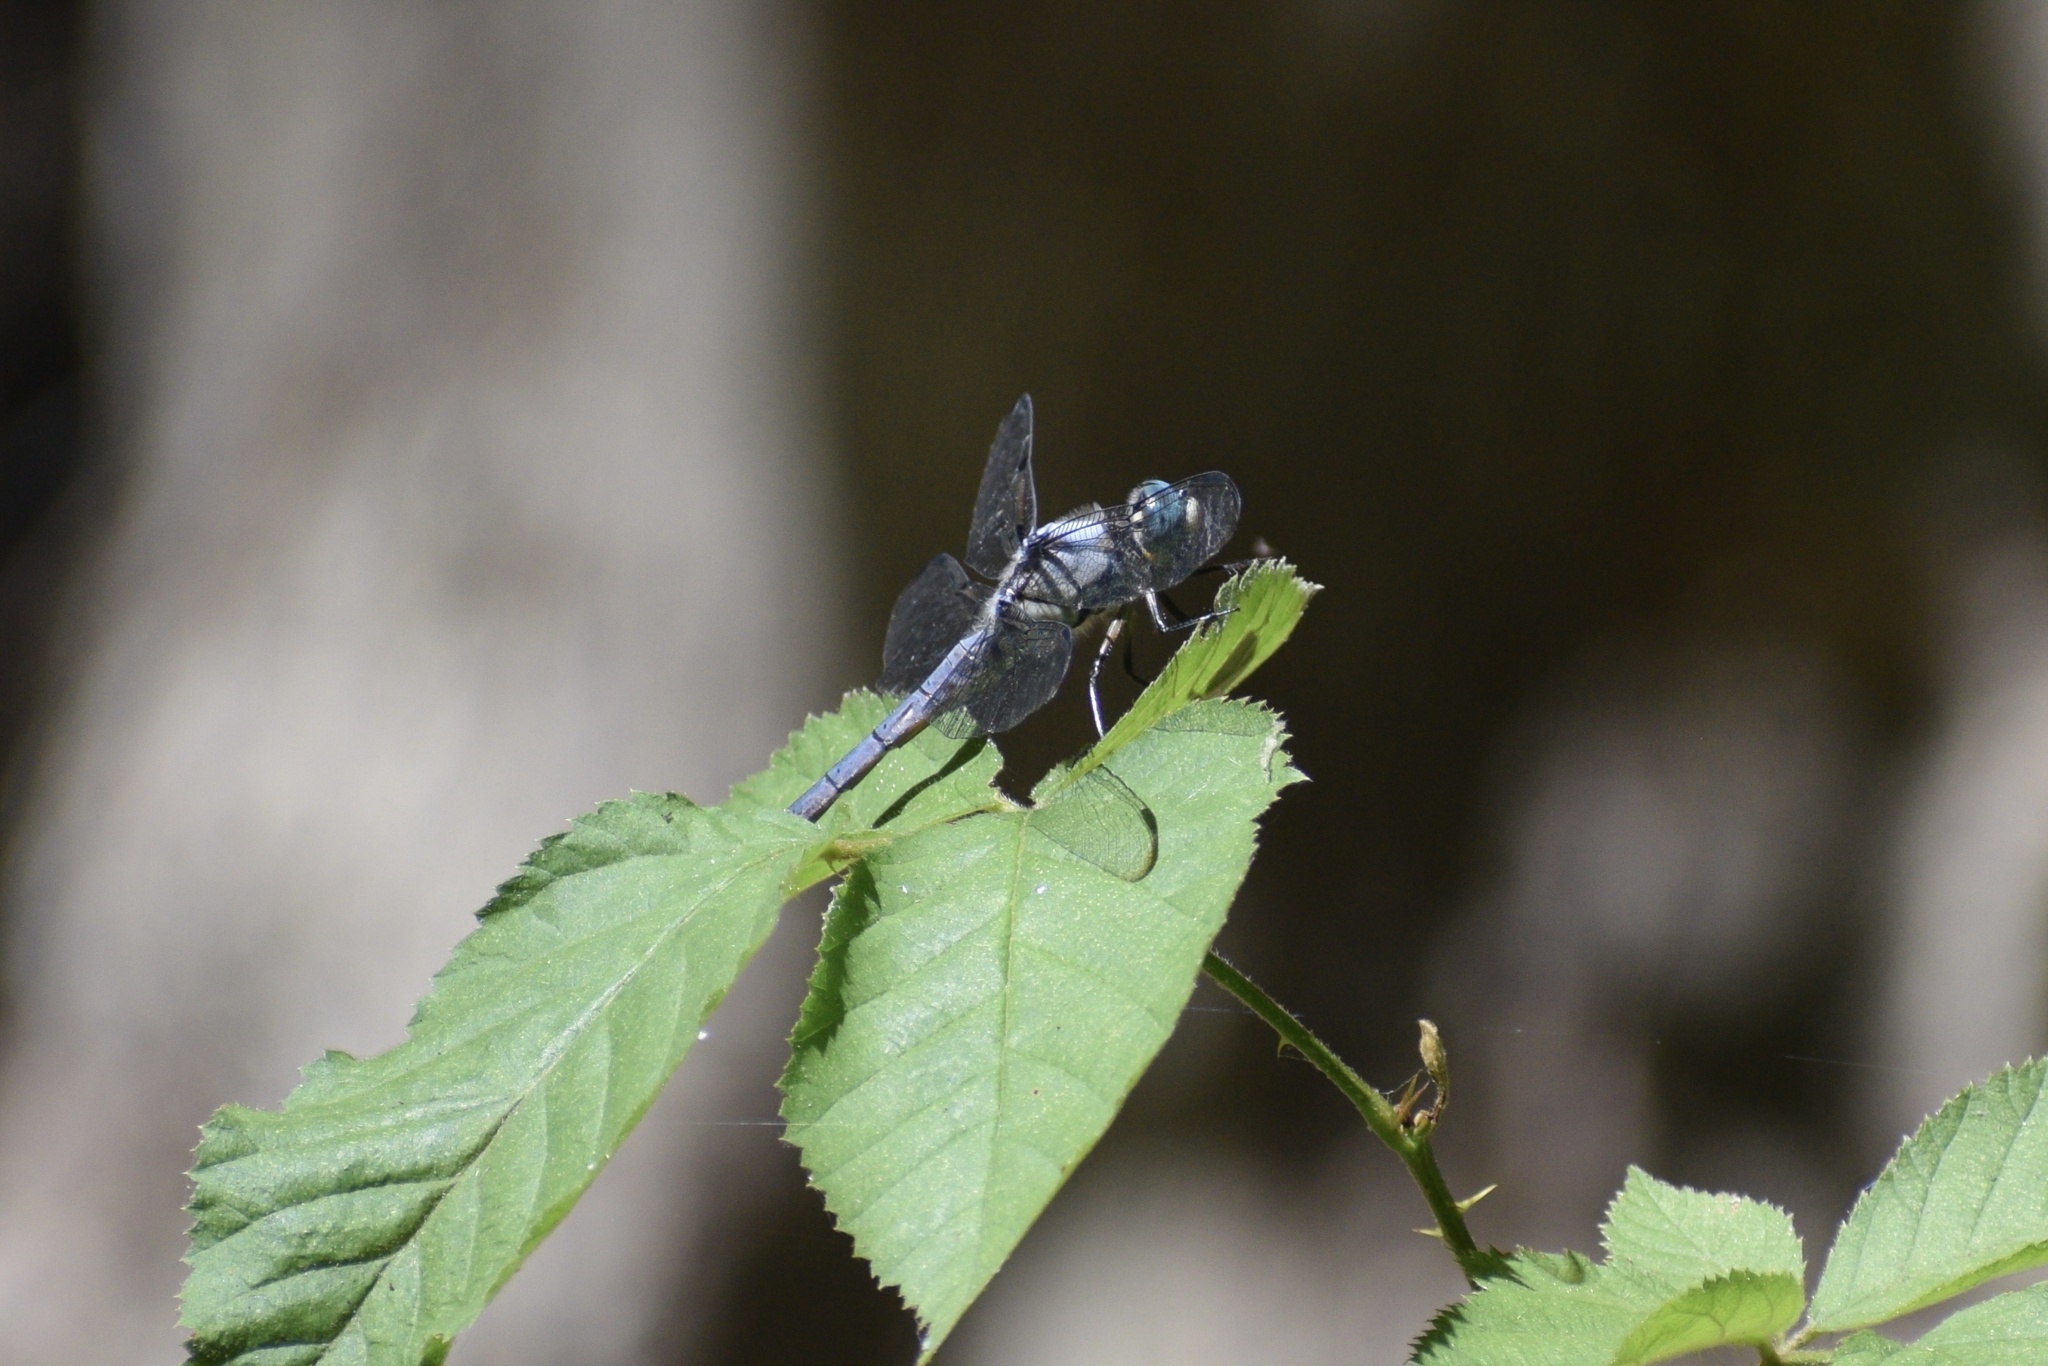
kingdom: Animalia
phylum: Arthropoda
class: Insecta
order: Odonata
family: Libellulidae
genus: Libellula
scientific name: Libellula vibrans
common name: Great blue skimmer
